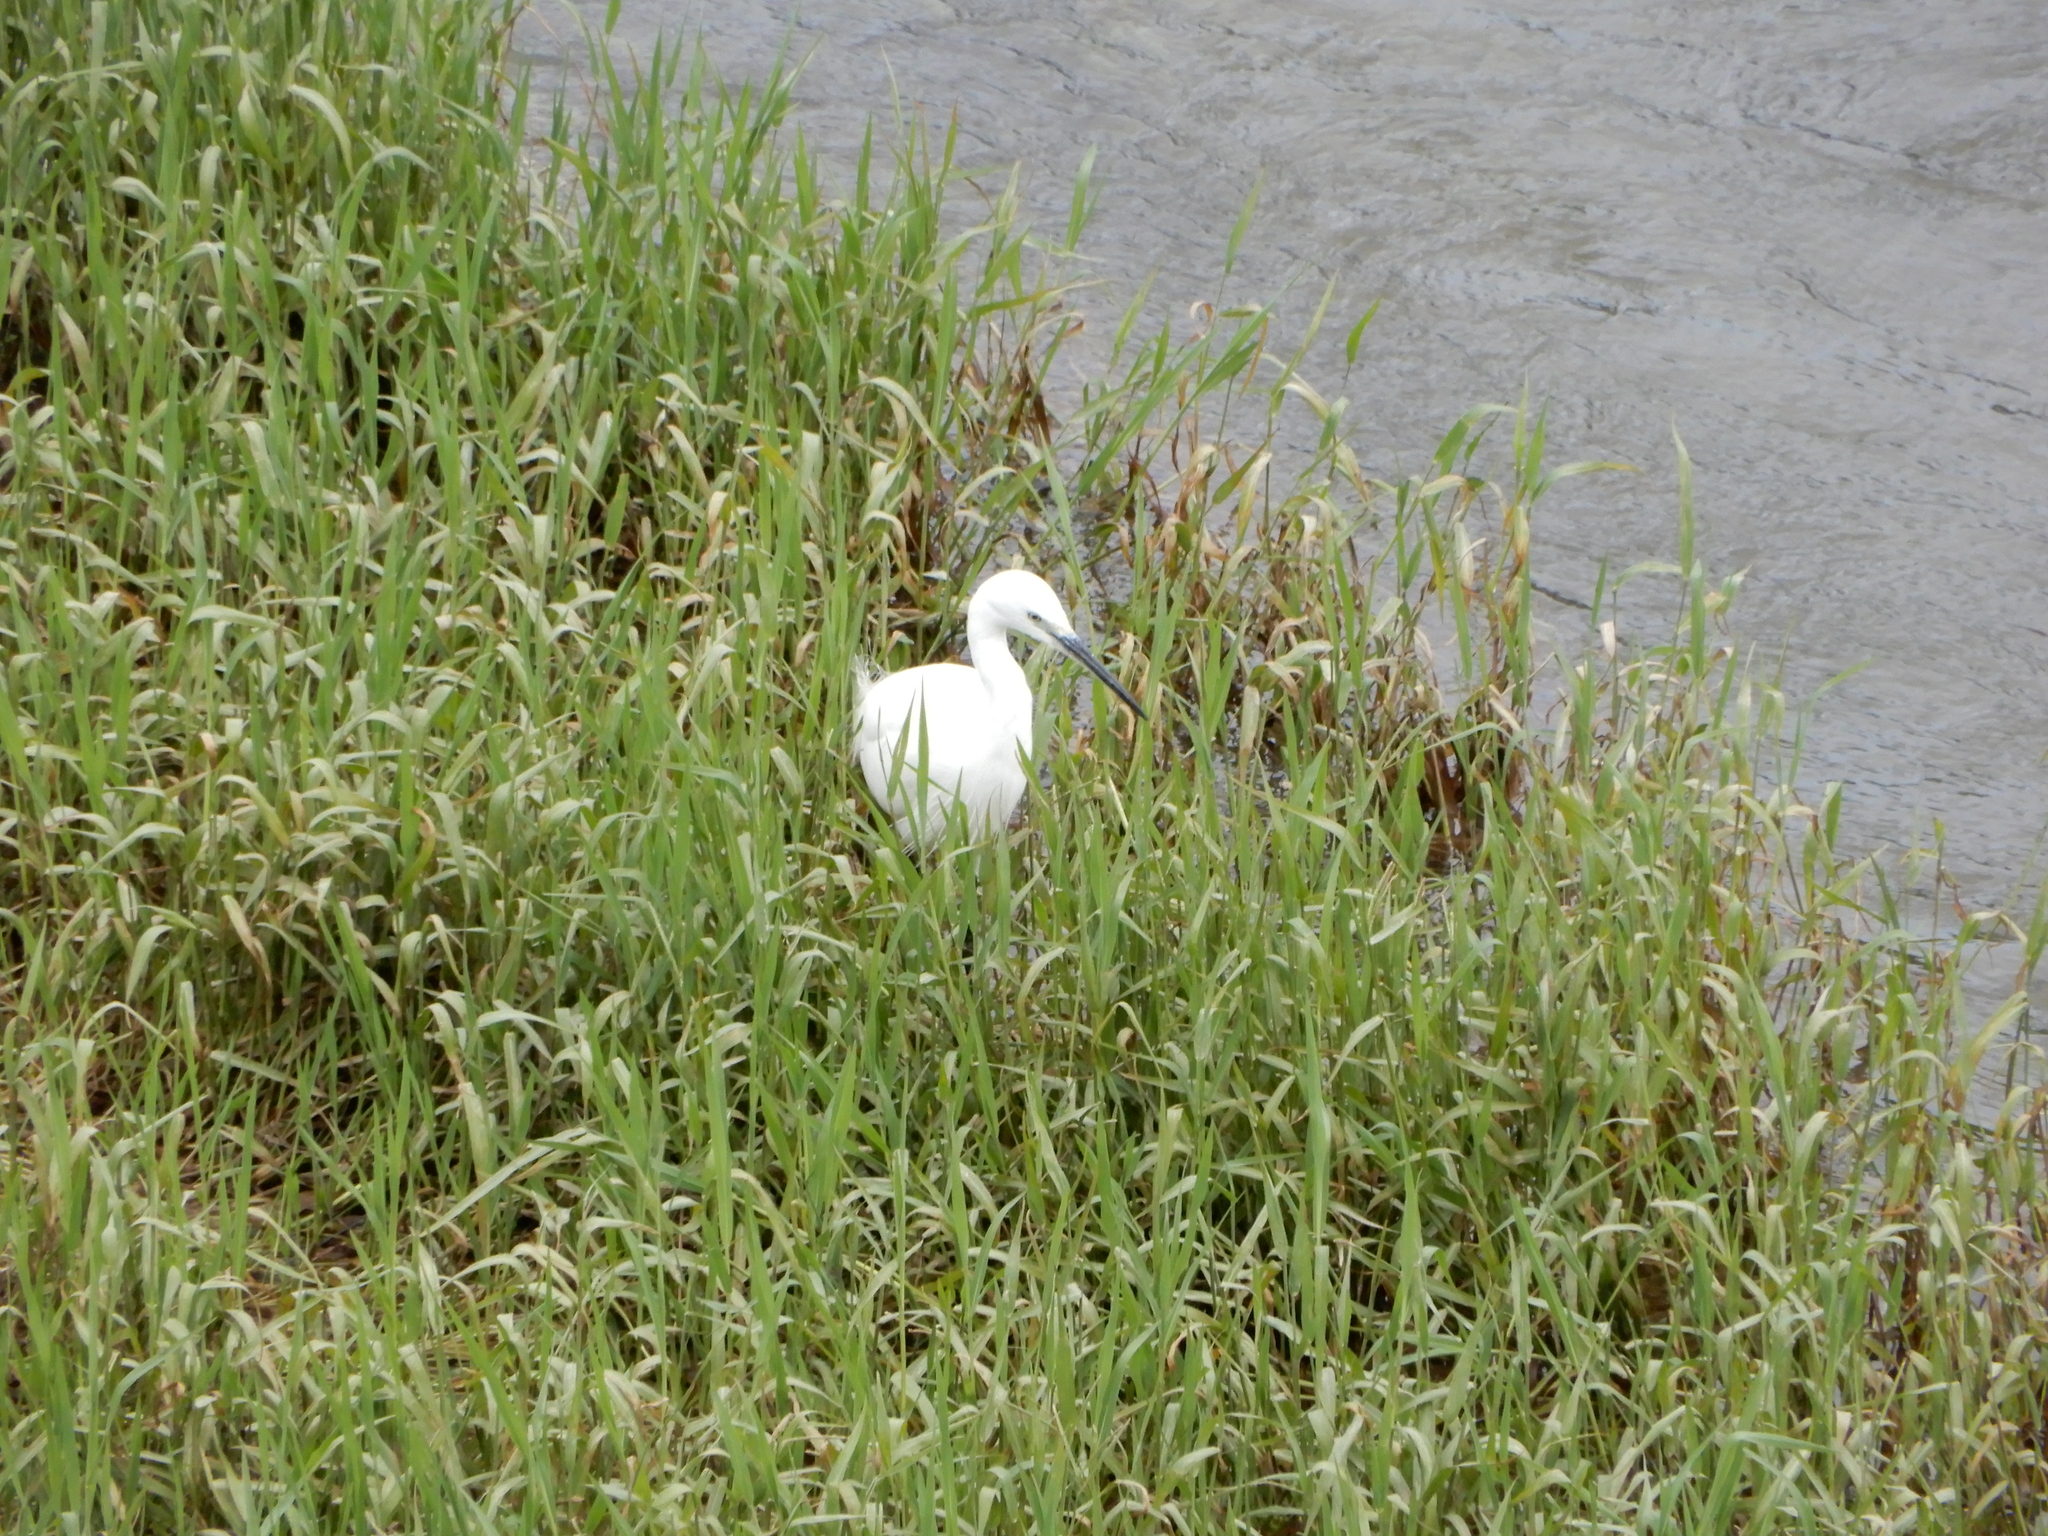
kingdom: Animalia
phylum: Chordata
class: Aves
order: Pelecaniformes
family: Ardeidae
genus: Egretta
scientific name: Egretta garzetta
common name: Little egret
